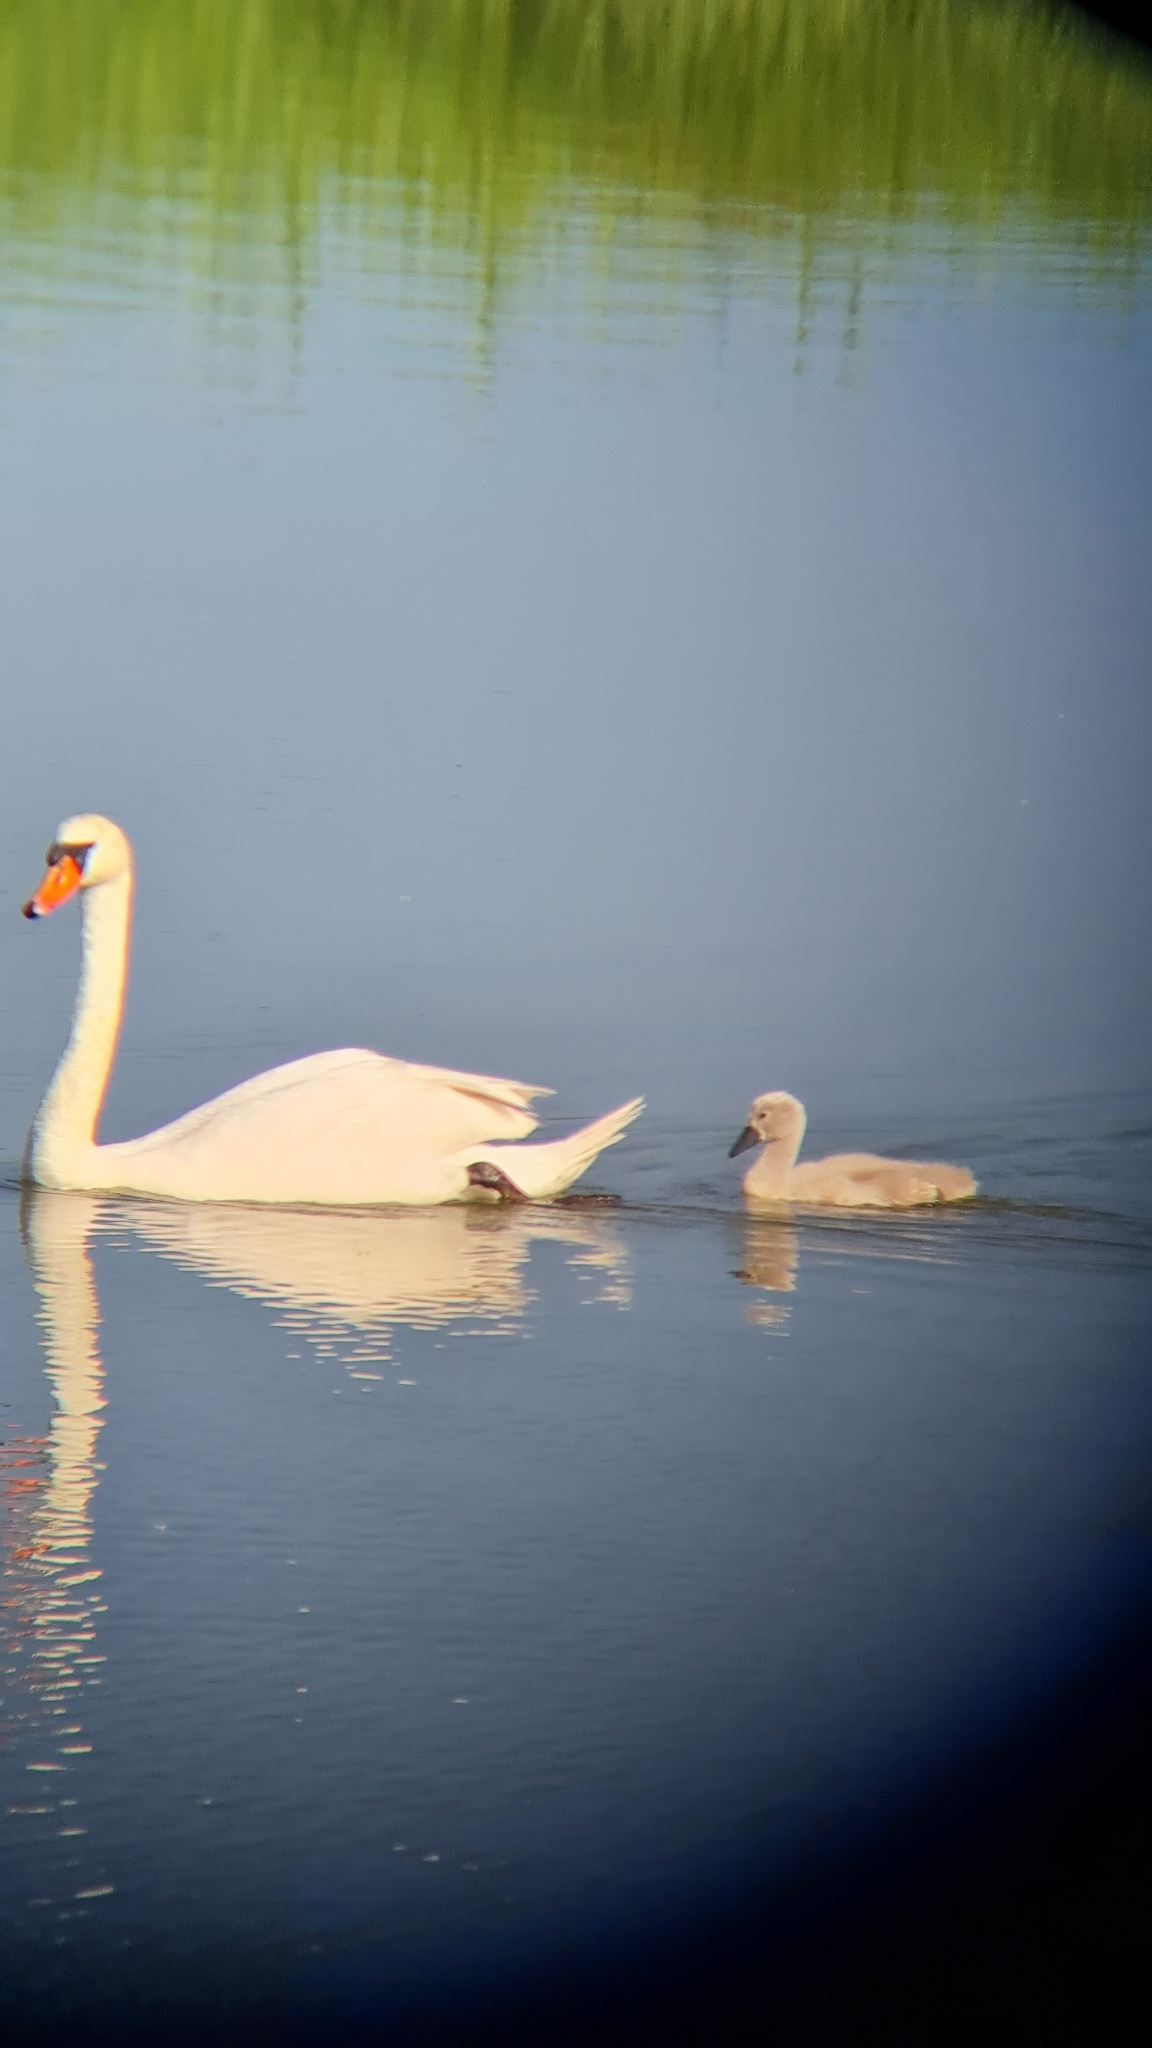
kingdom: Animalia
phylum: Chordata
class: Aves
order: Anseriformes
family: Anatidae
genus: Cygnus
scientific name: Cygnus olor
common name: Mute swan
